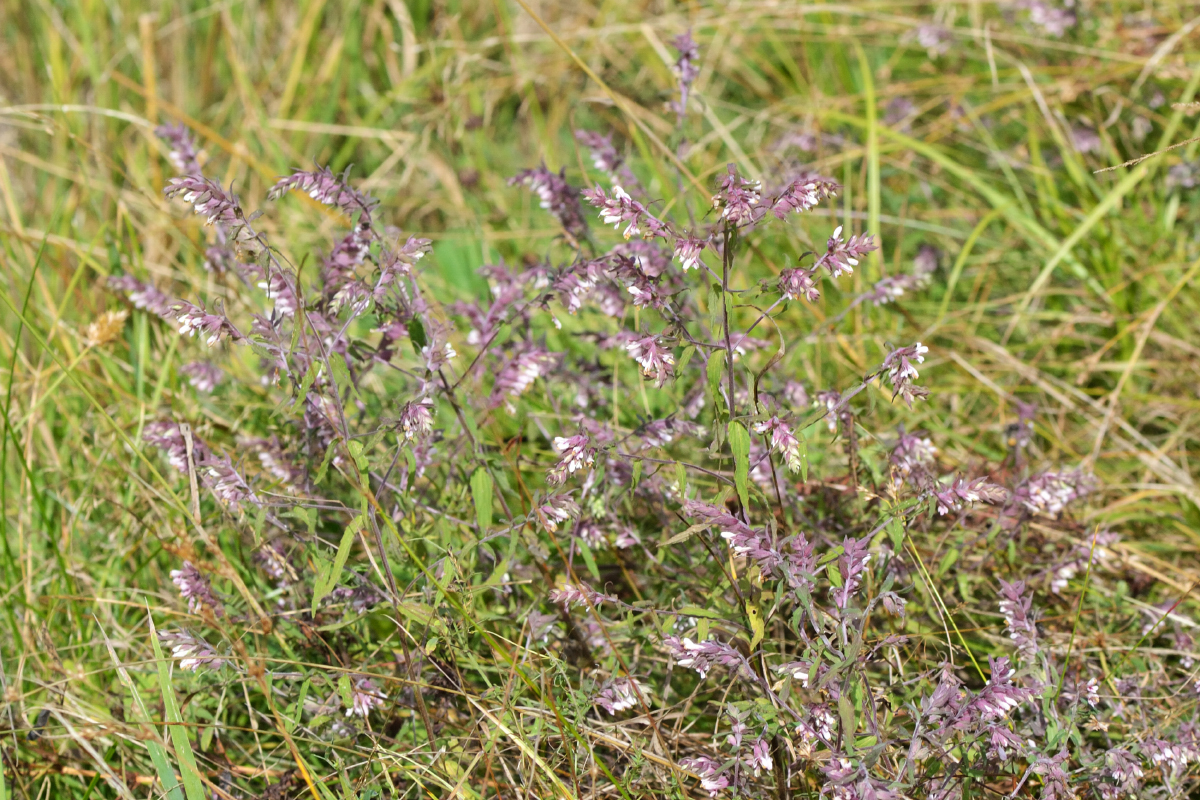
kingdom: Plantae
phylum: Tracheophyta
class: Magnoliopsida
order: Lamiales
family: Orobanchaceae
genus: Odontites
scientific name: Odontites vulgaris
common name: Broomrape
